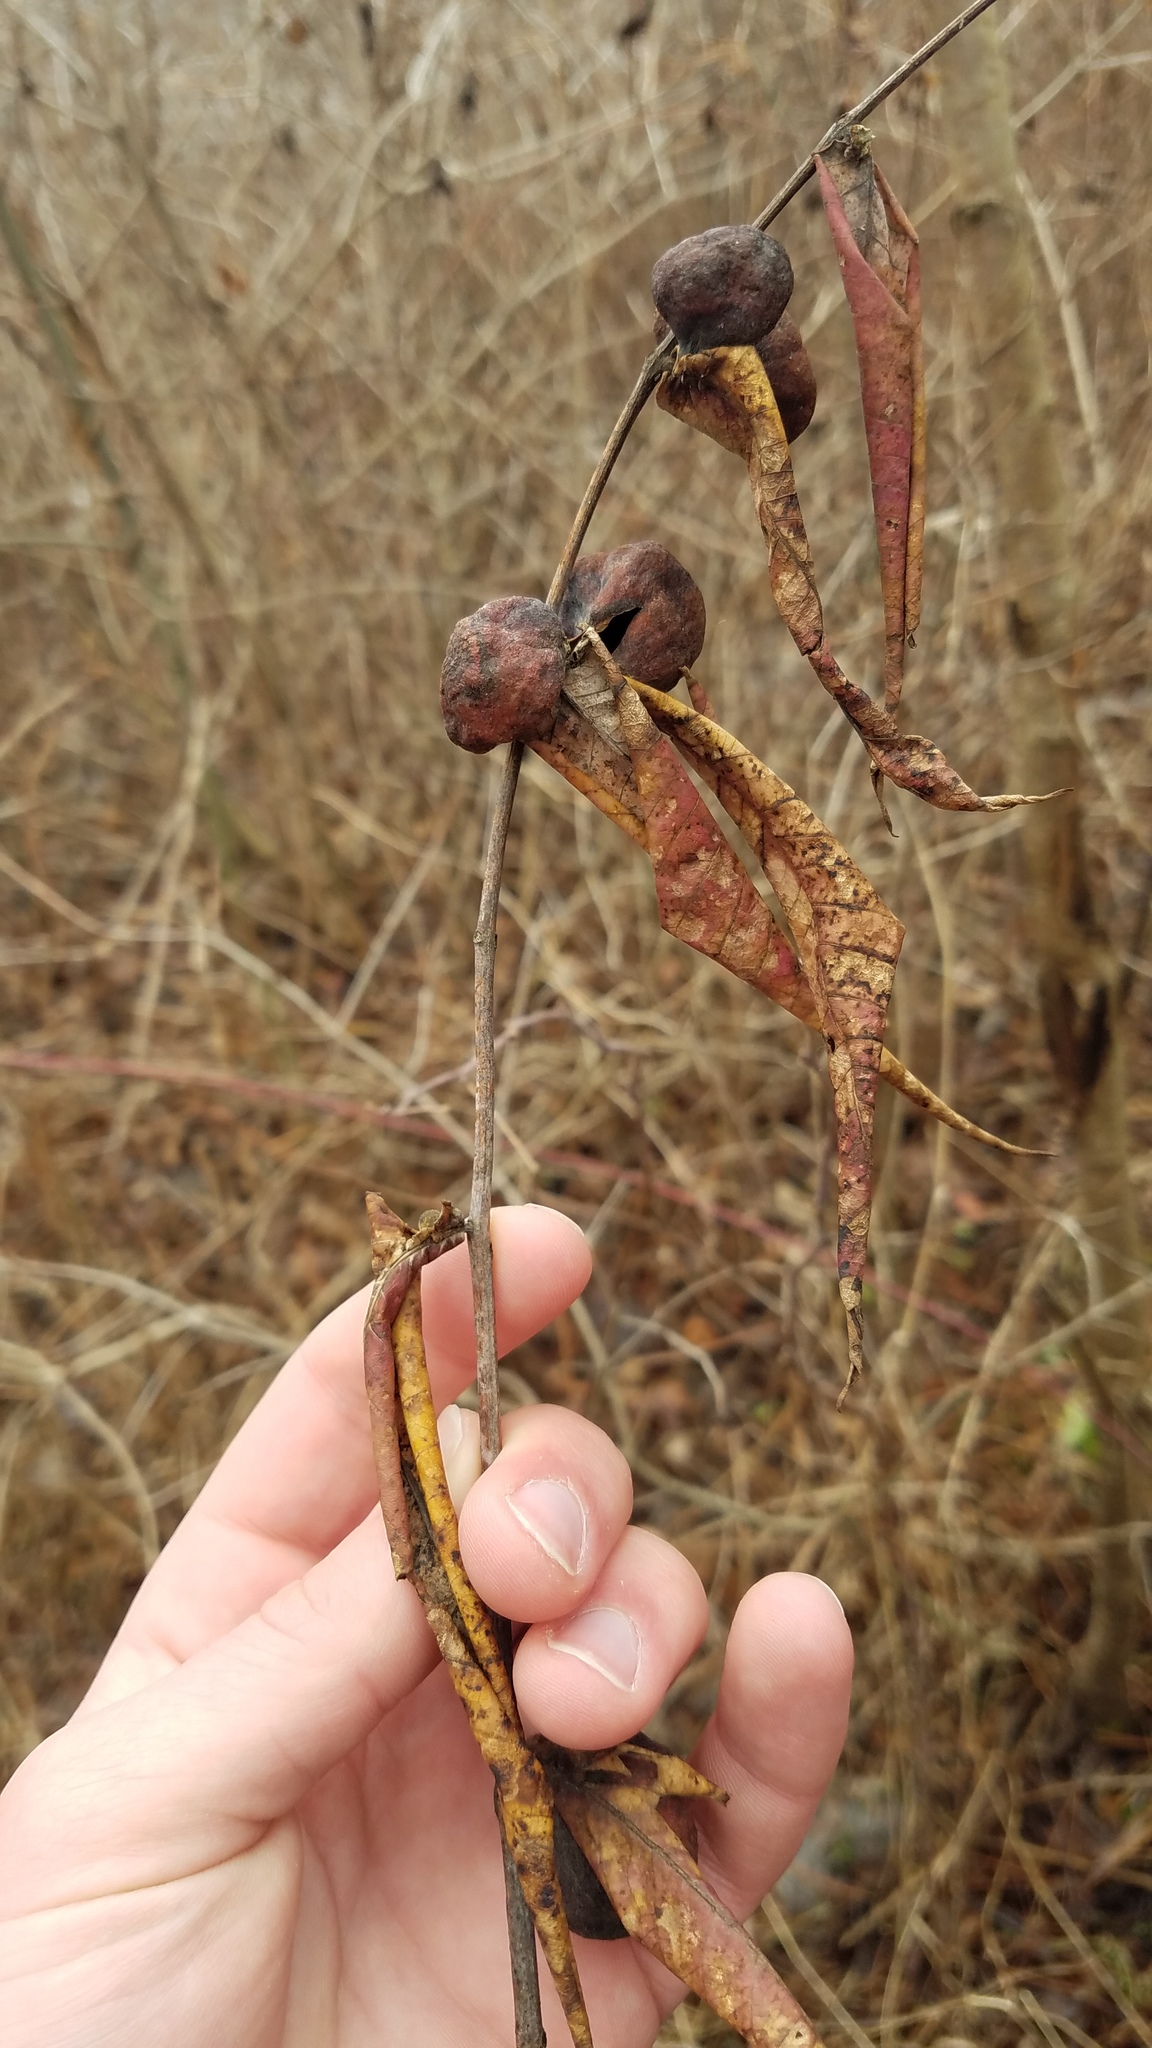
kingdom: Animalia
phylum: Arthropoda
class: Insecta
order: Hemiptera
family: Aphididae
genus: Melaphis
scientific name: Melaphis rhois
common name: Sumac gall aphid
